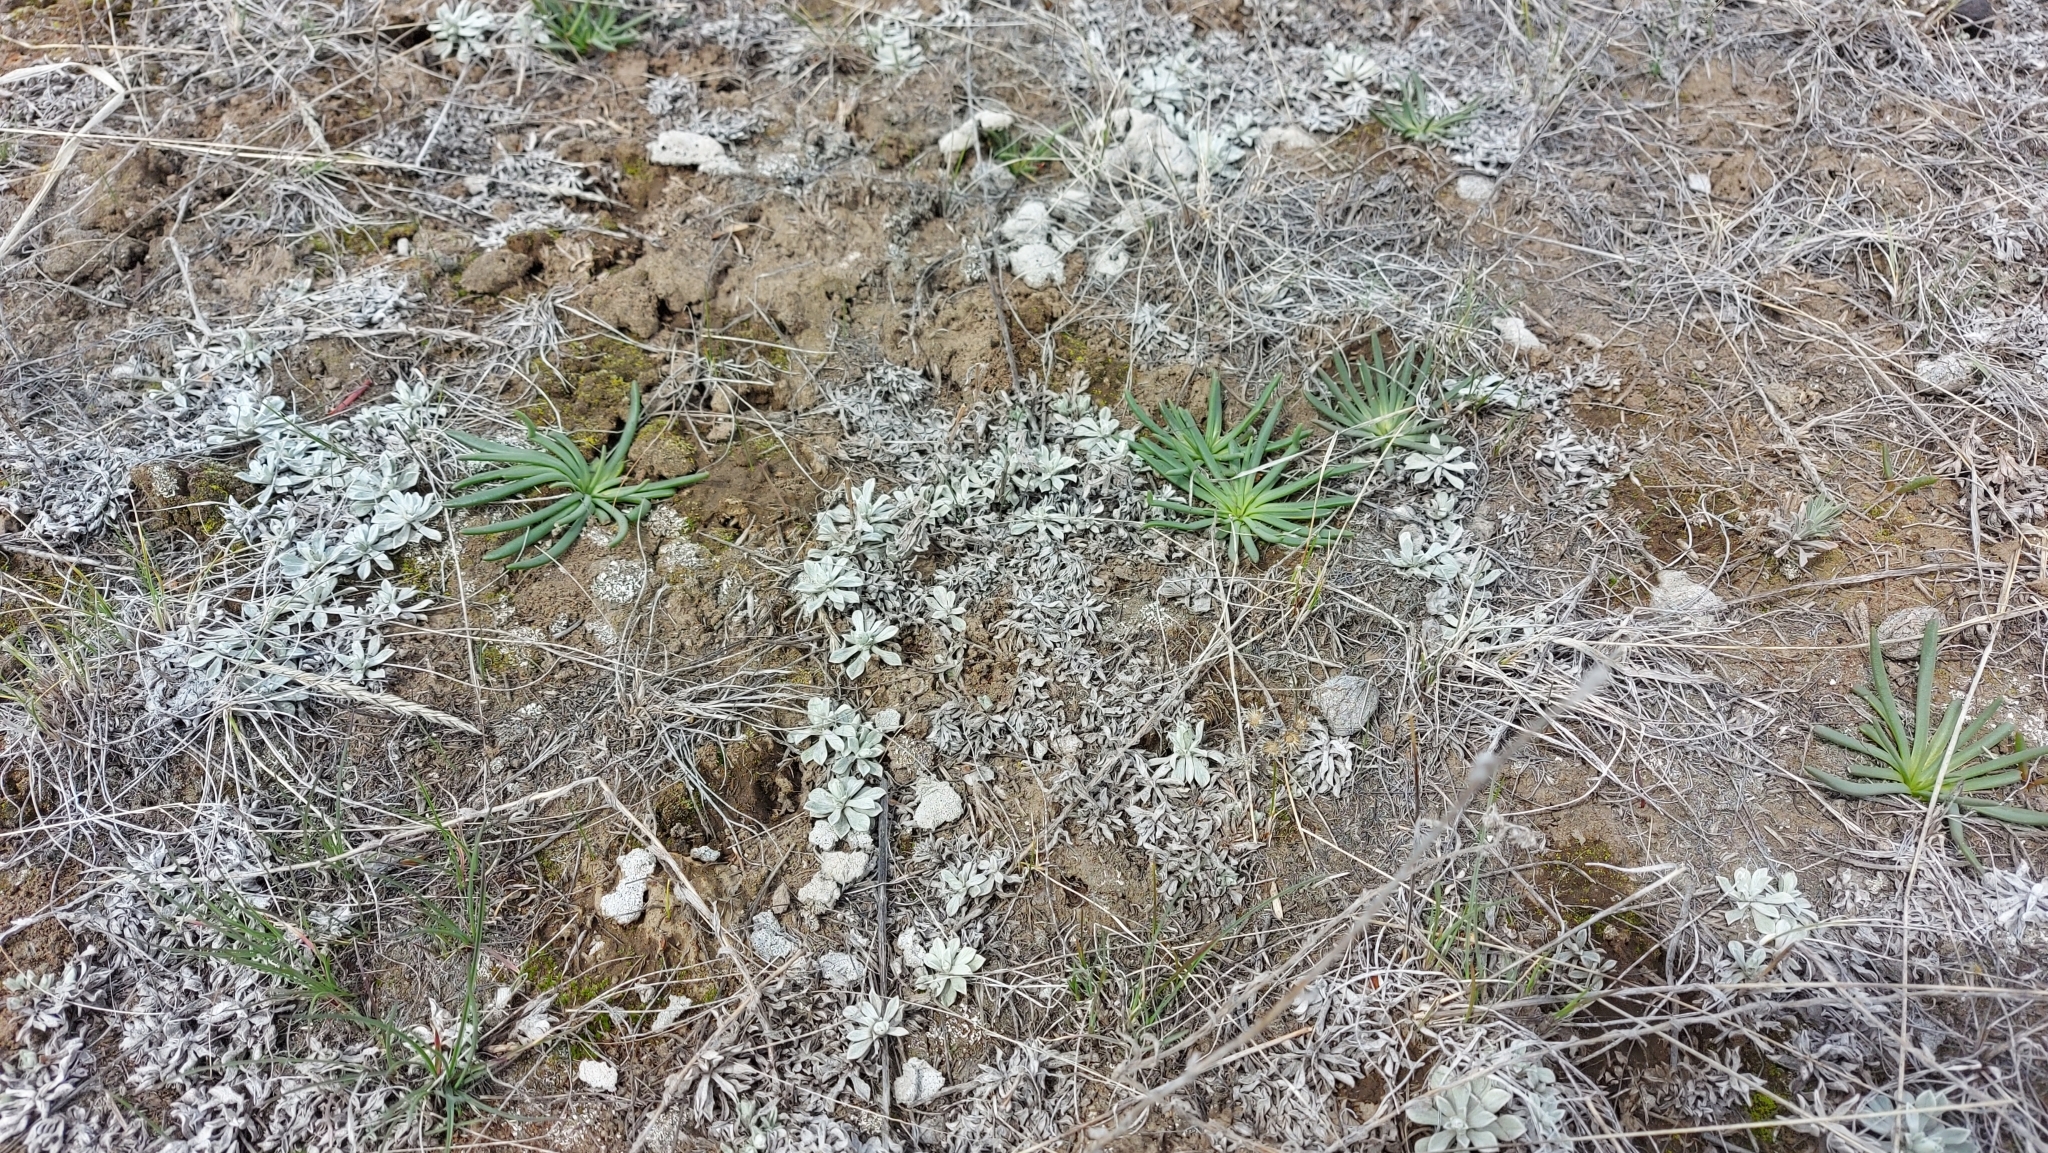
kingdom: Plantae
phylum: Tracheophyta
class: Magnoliopsida
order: Caryophyllales
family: Montiaceae
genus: Lewisia
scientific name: Lewisia rediviva
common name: Bitter-root
